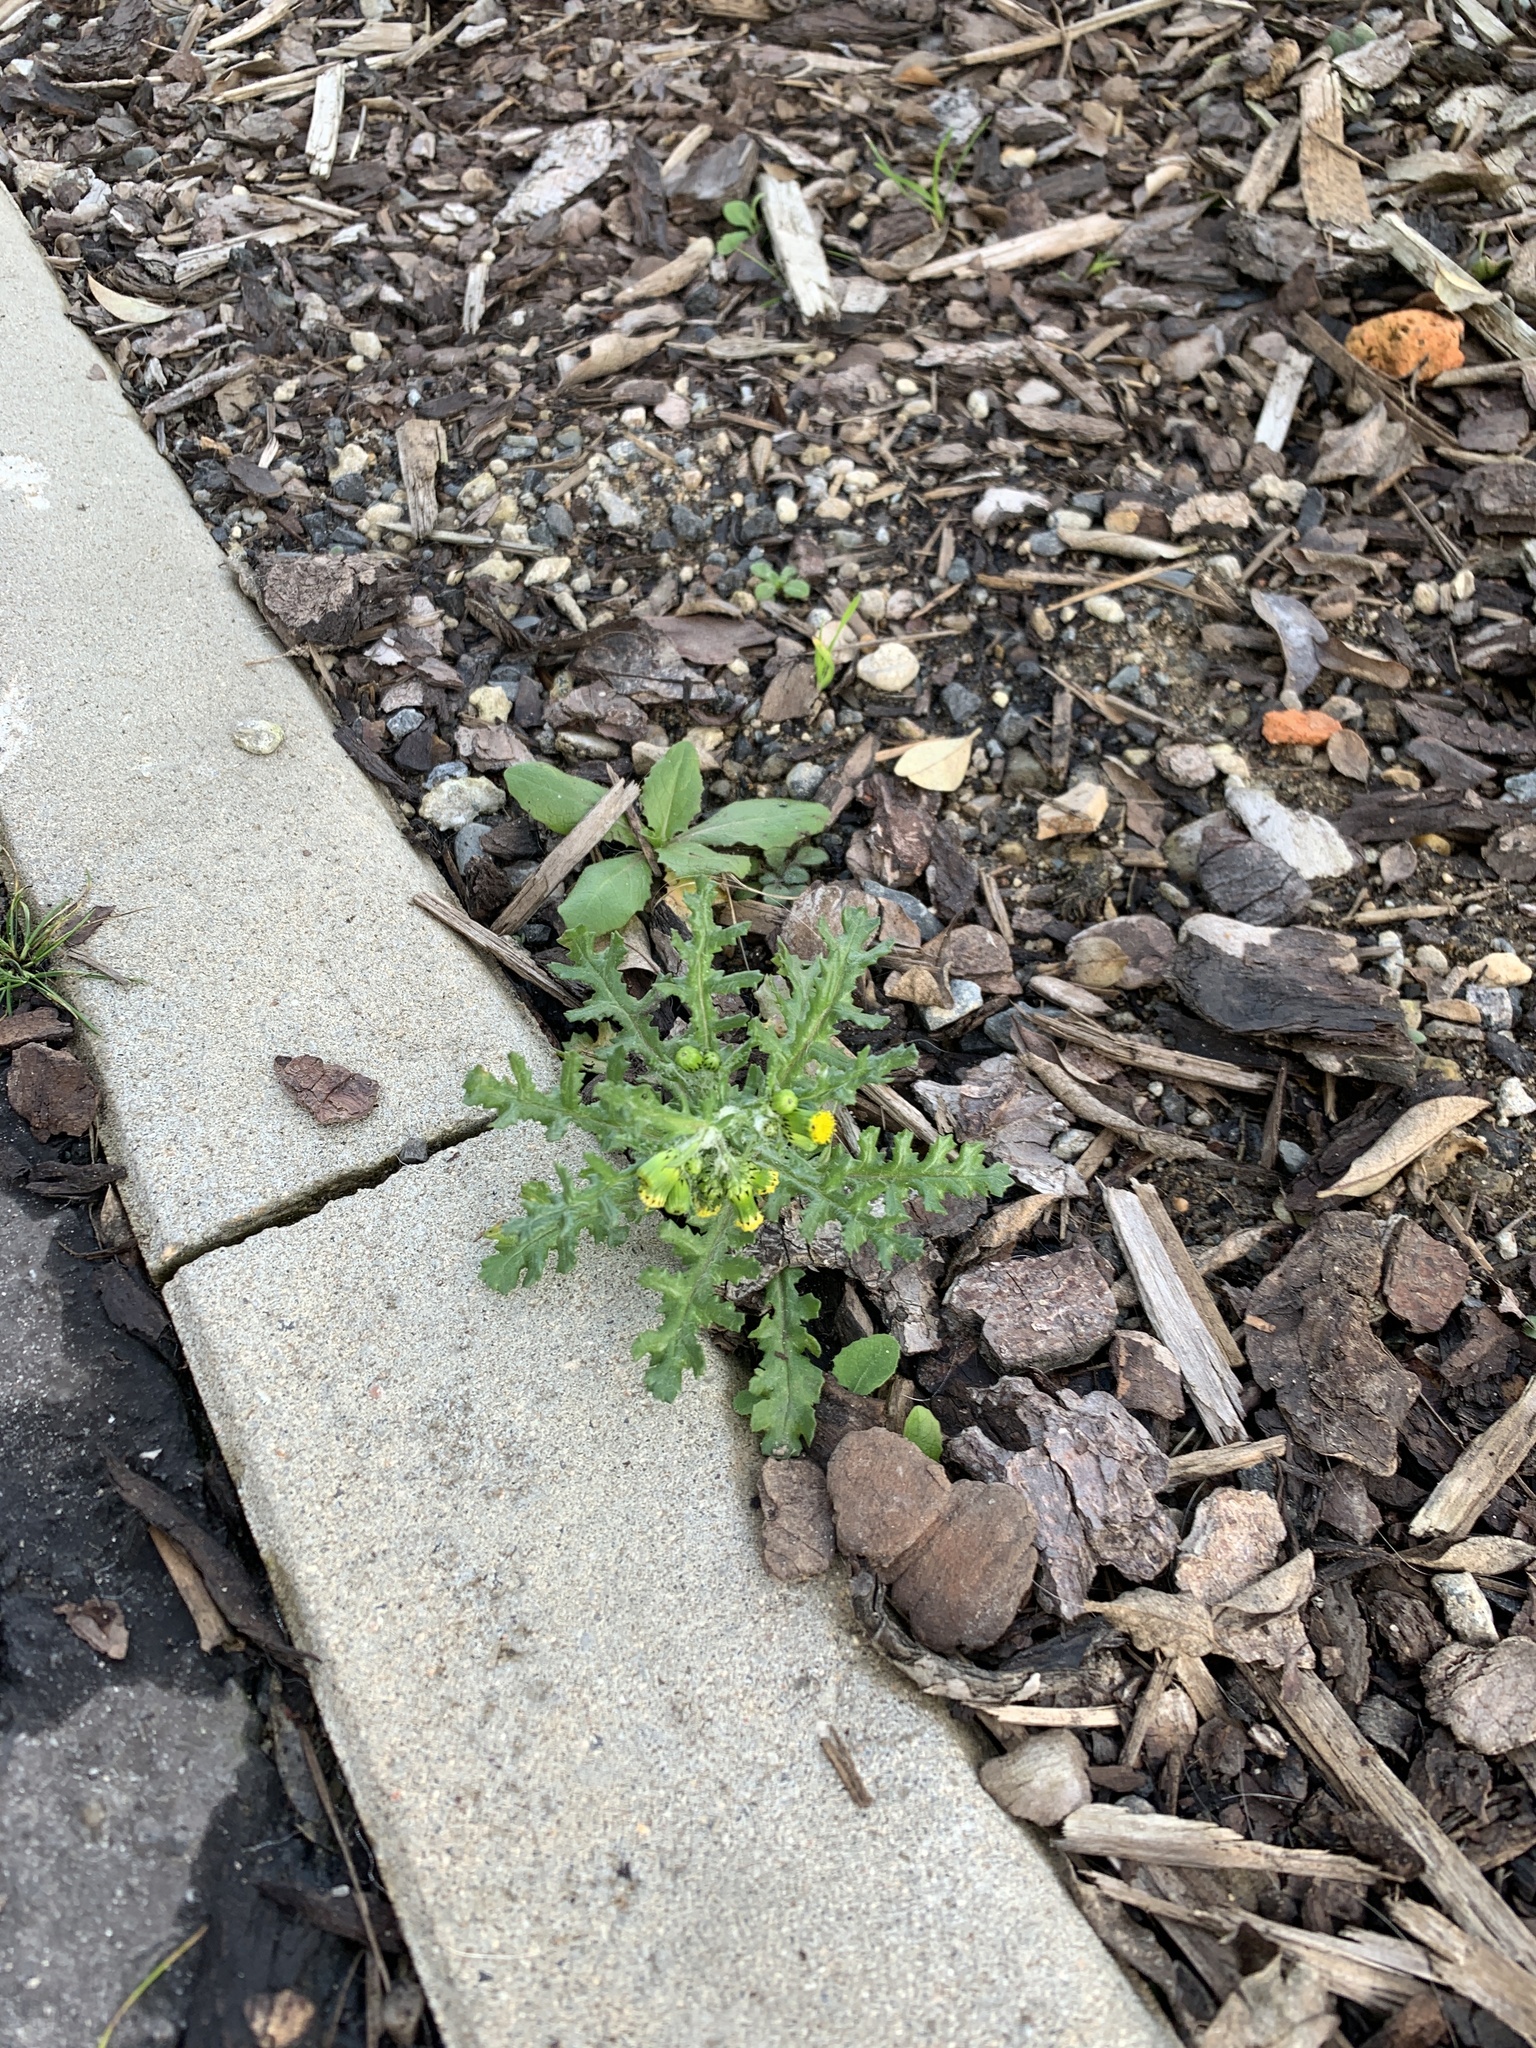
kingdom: Plantae
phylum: Tracheophyta
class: Magnoliopsida
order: Asterales
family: Asteraceae
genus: Senecio
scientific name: Senecio vulgaris
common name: Old-man-in-the-spring
